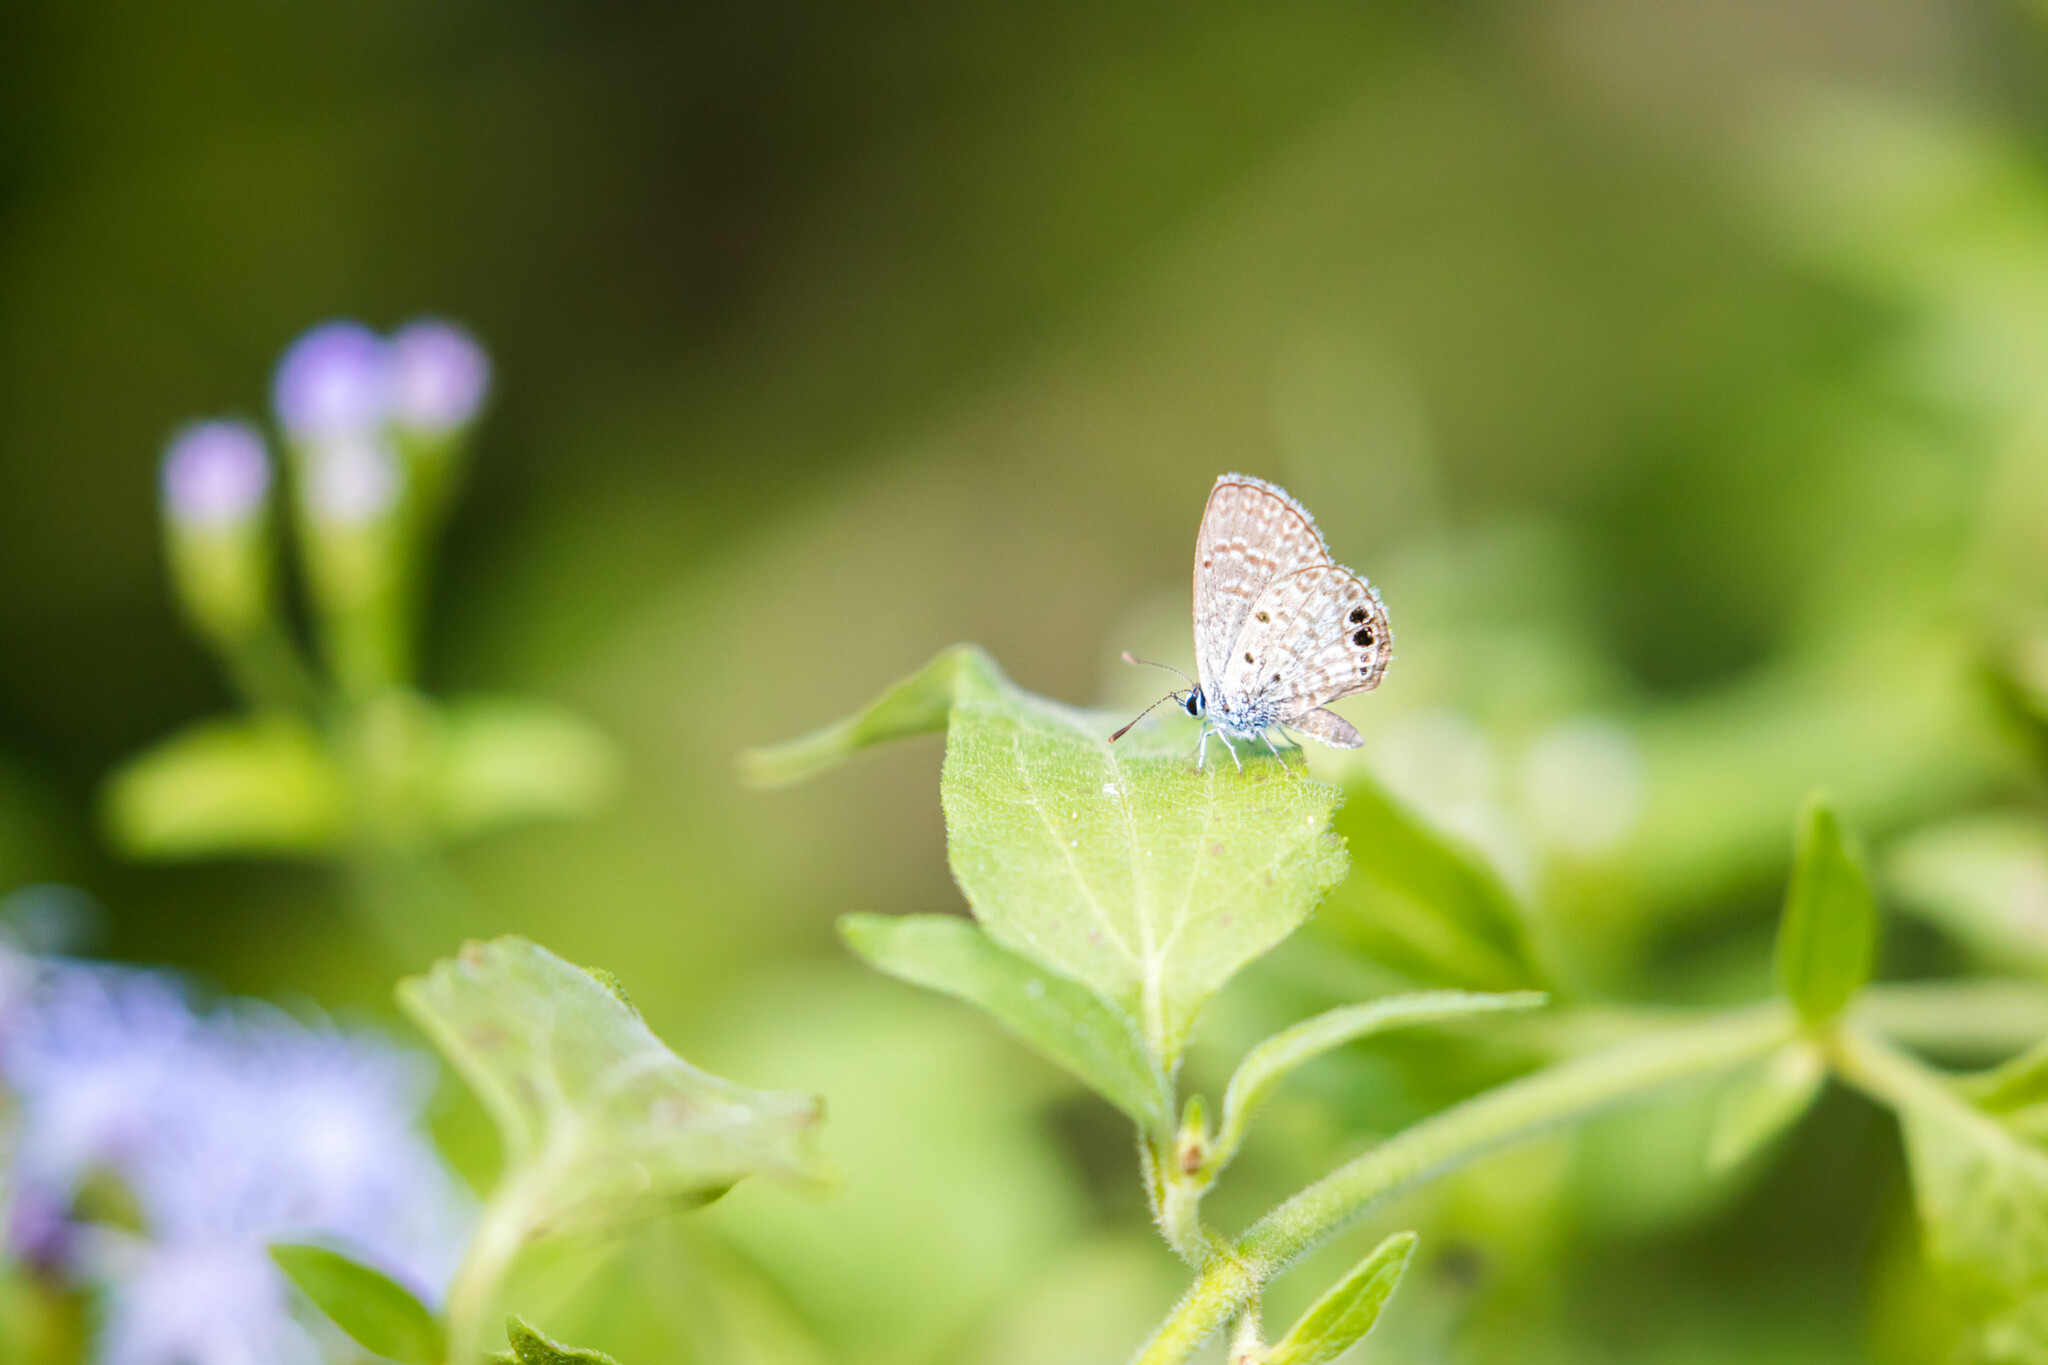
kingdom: Animalia
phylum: Arthropoda
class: Insecta
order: Lepidoptera
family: Lycaenidae
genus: Hemiargus
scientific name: Hemiargus ceraunus
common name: Ceraunus blue
